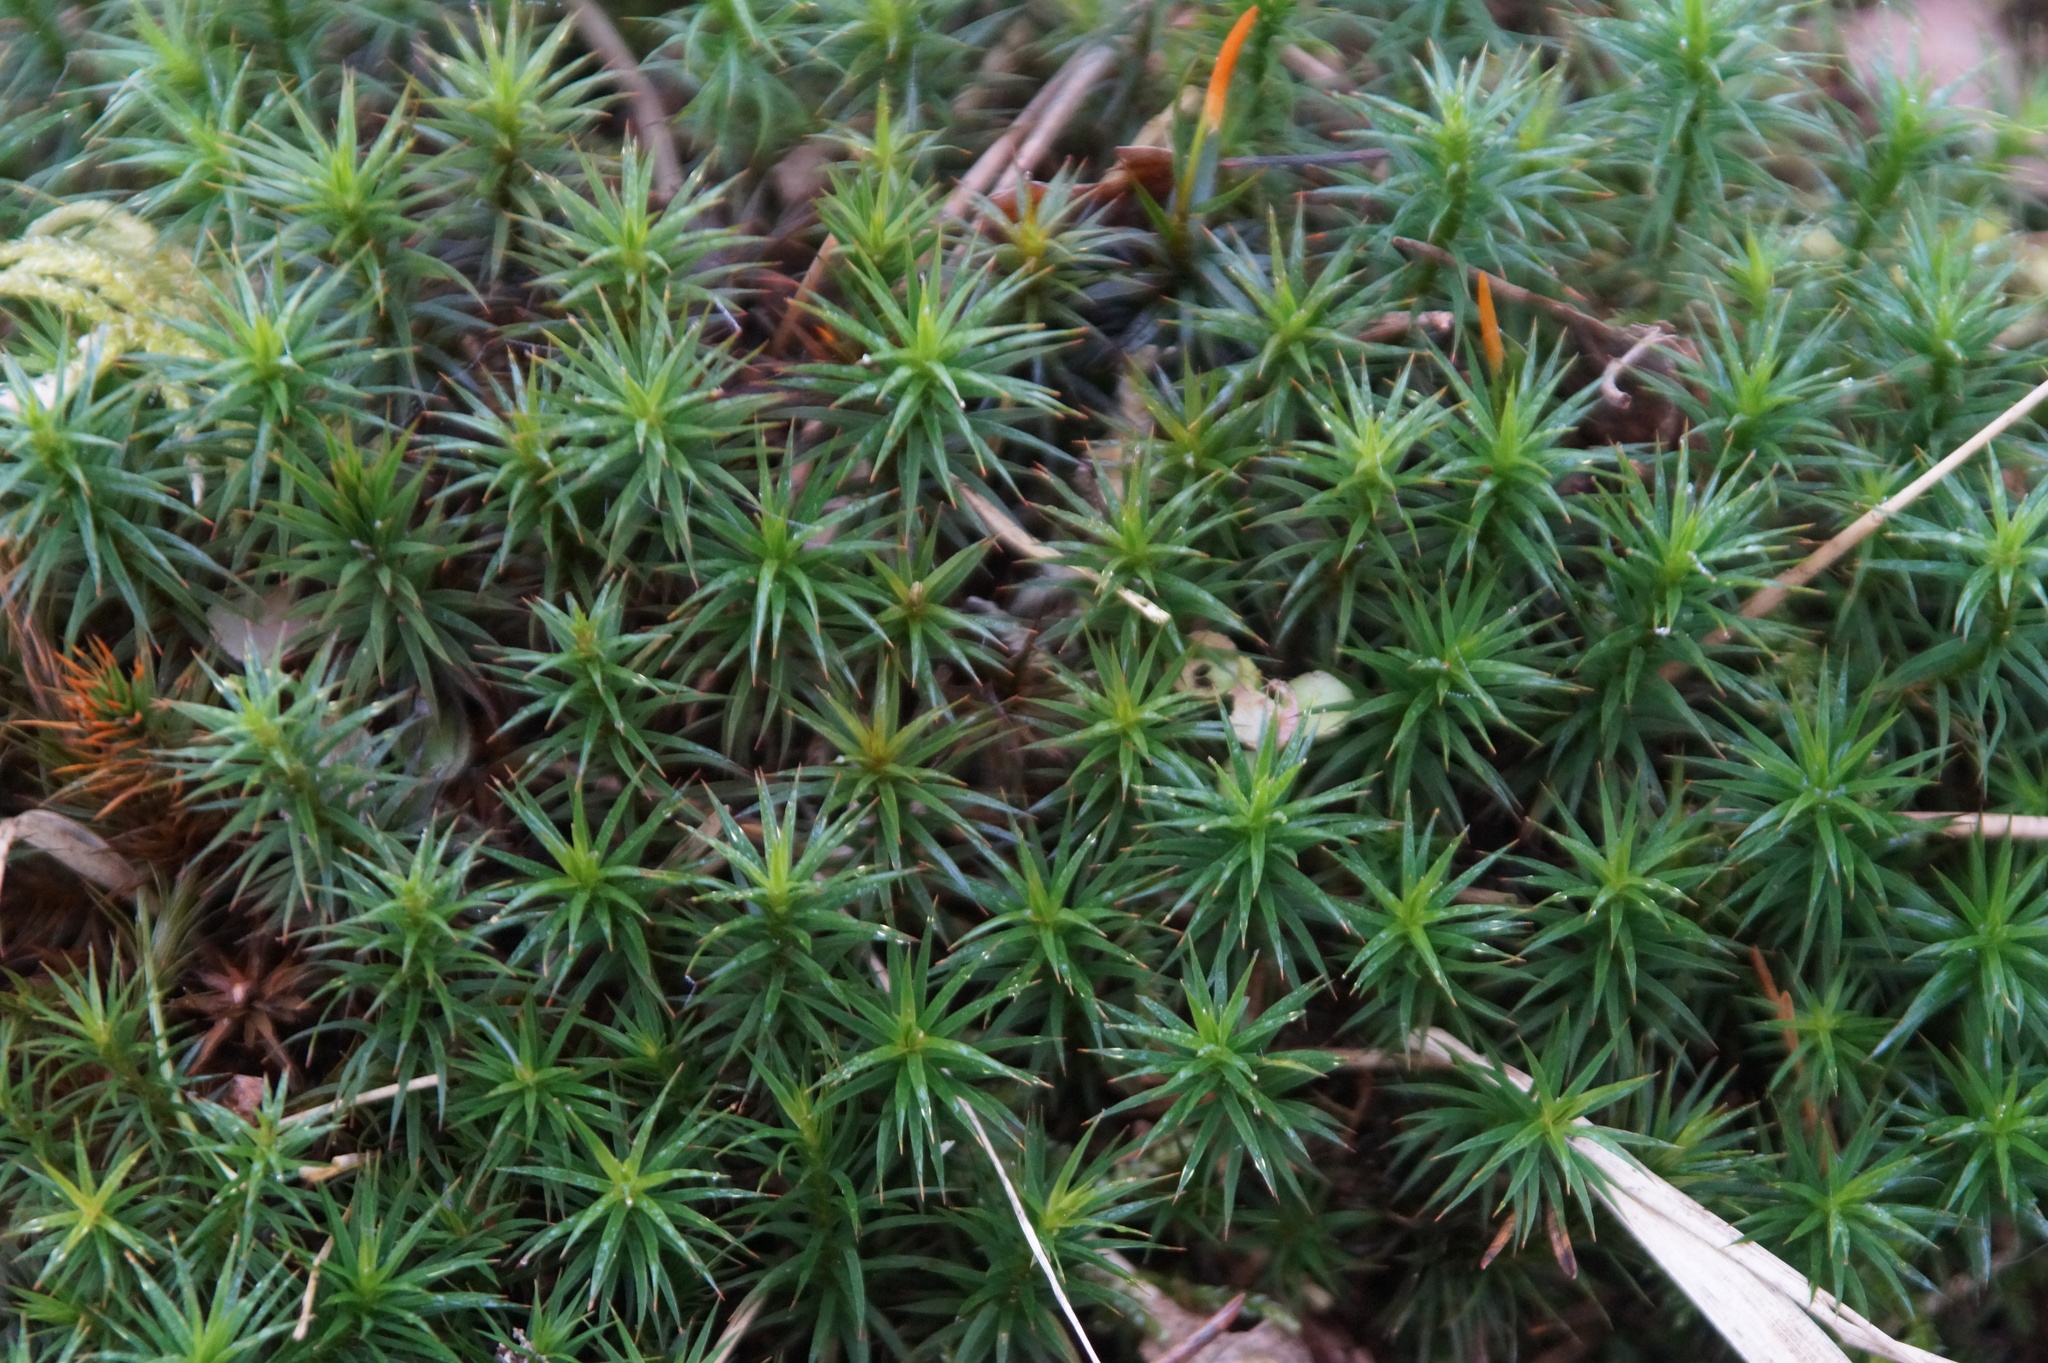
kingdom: Plantae
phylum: Bryophyta
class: Polytrichopsida
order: Polytrichales
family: Polytrichaceae
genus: Polytrichum
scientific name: Polytrichum formosum
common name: Bank haircap moss
